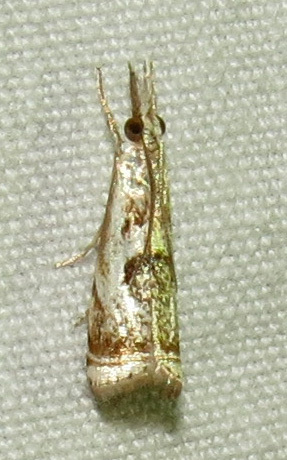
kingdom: Animalia
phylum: Arthropoda
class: Insecta
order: Lepidoptera
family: Crambidae
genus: Microcrambus
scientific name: Microcrambus elegans
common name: Elegant grass-veneer
